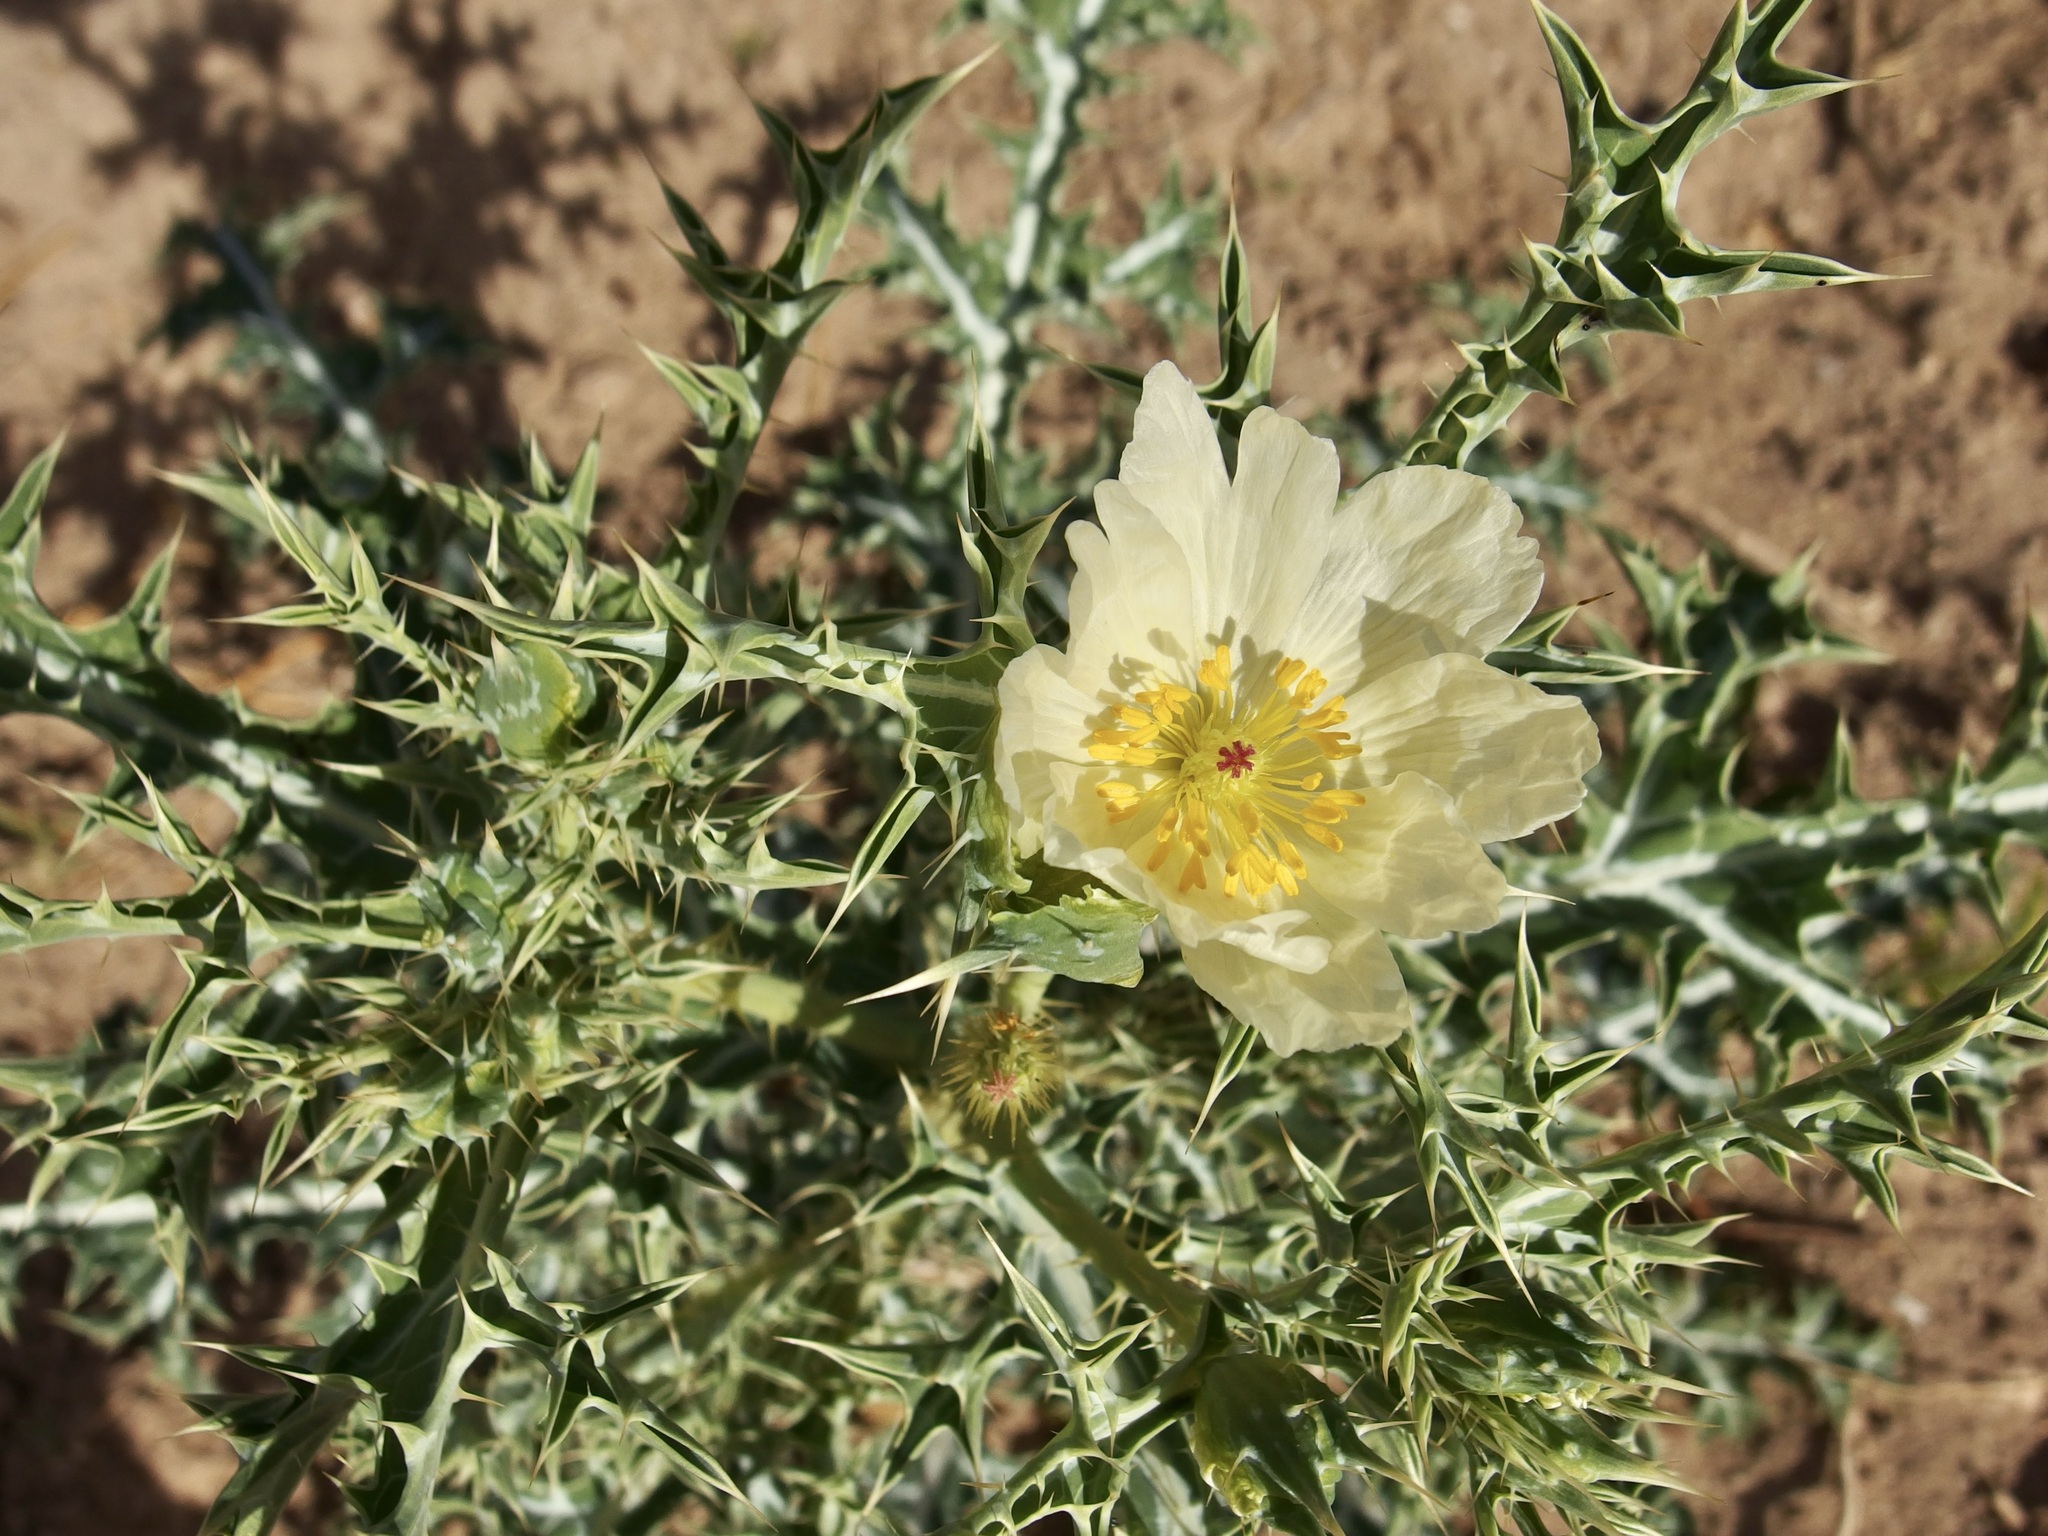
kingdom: Plantae
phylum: Tracheophyta
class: Magnoliopsida
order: Ranunculales
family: Papaveraceae
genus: Argemone
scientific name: Argemone ochroleuca
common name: White-flower mexican-poppy
